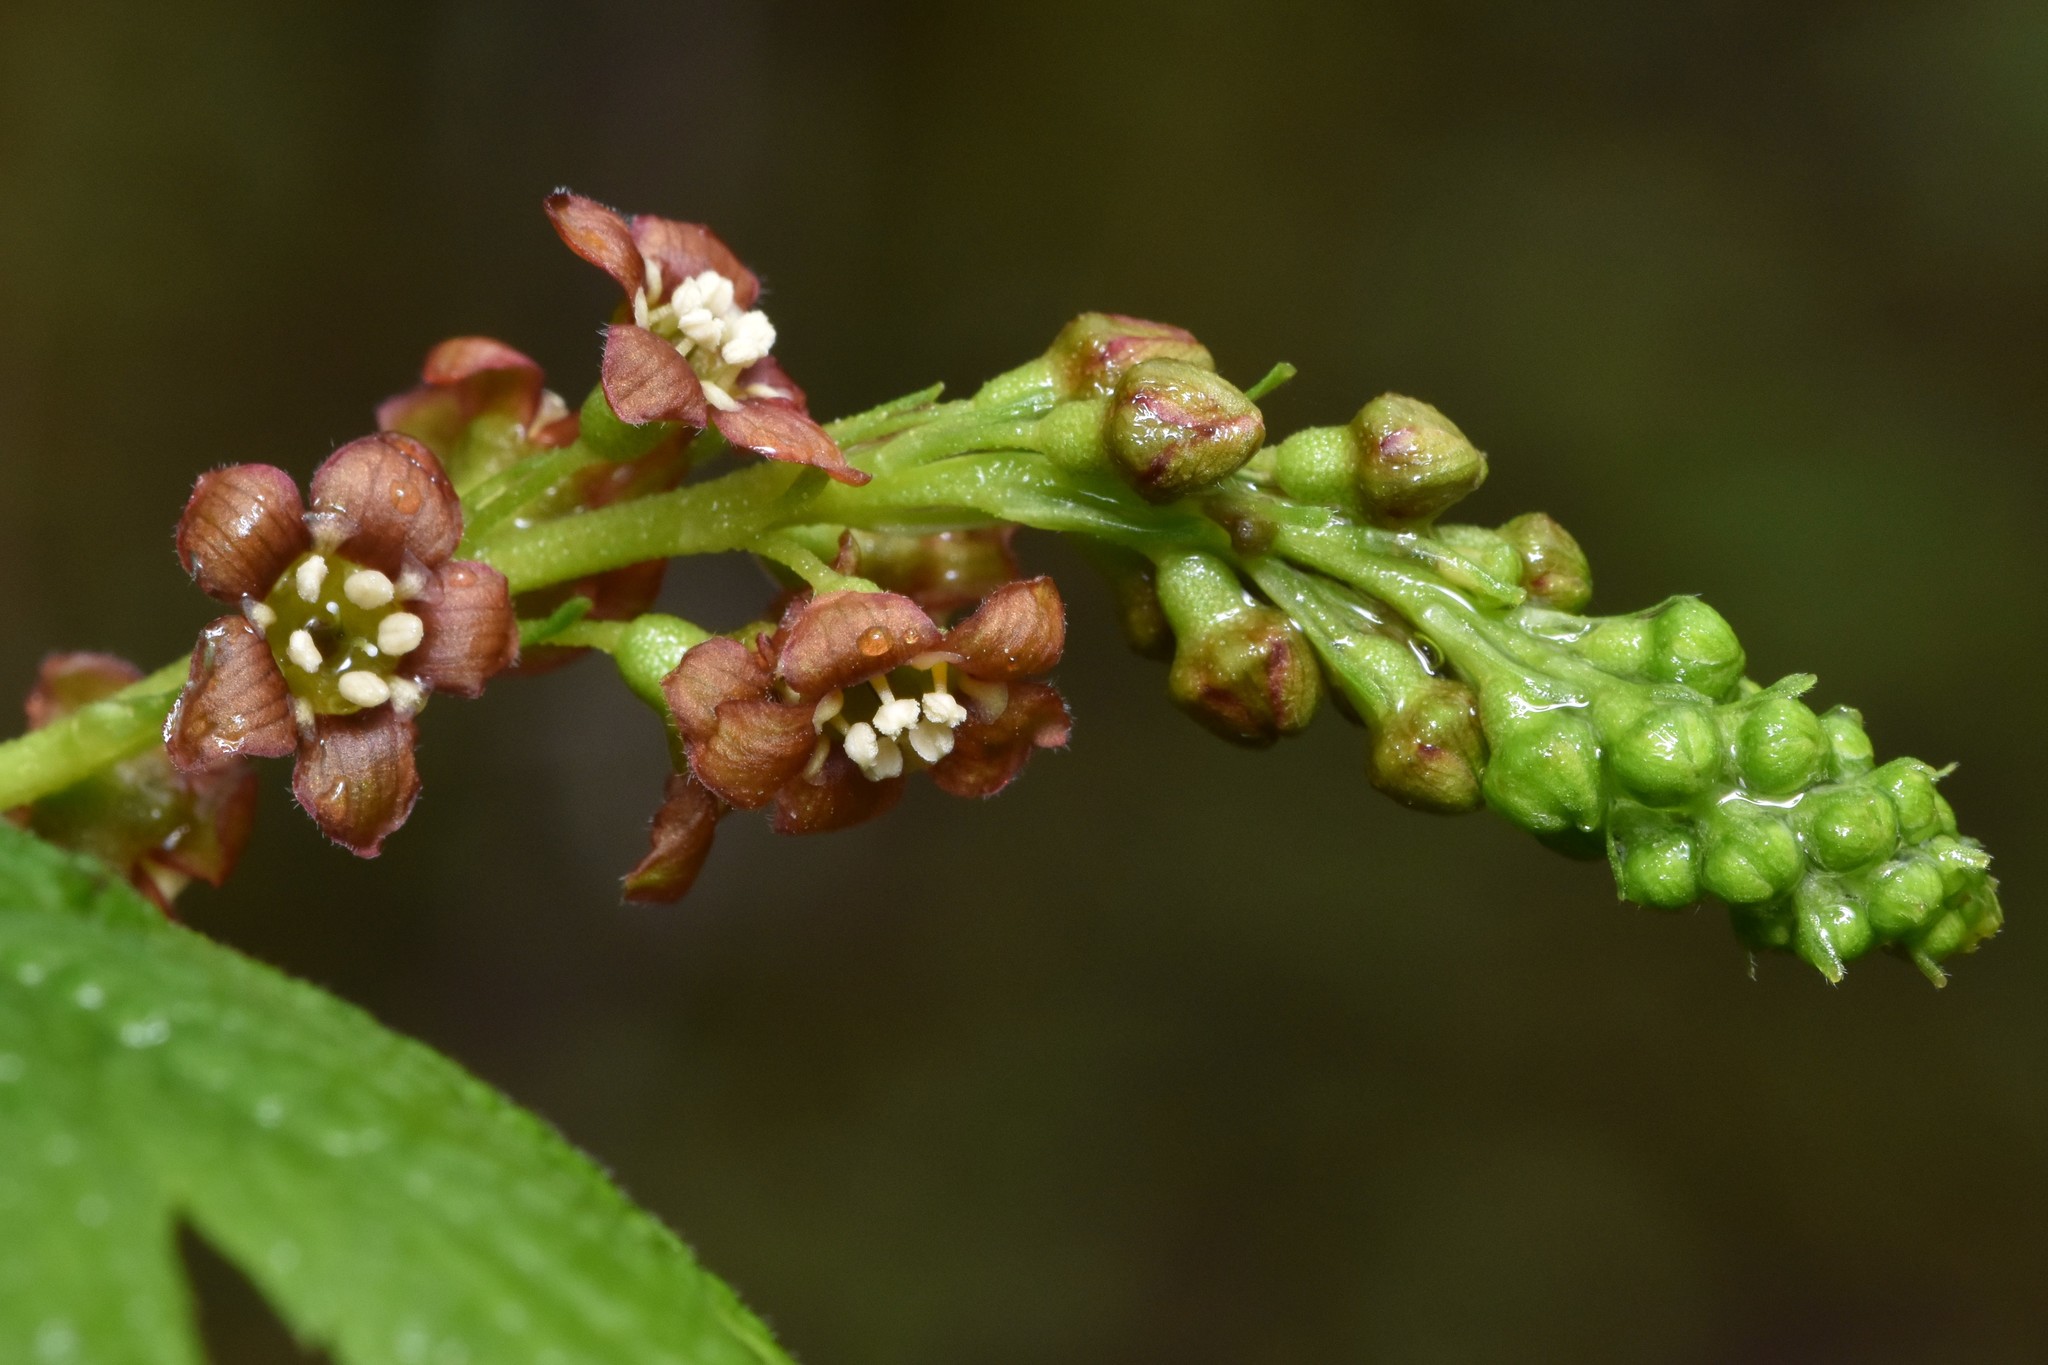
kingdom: Plantae
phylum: Tracheophyta
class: Magnoliopsida
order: Saxifragales
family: Grossulariaceae
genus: Ribes
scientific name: Ribes bracteosum
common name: California black currant
